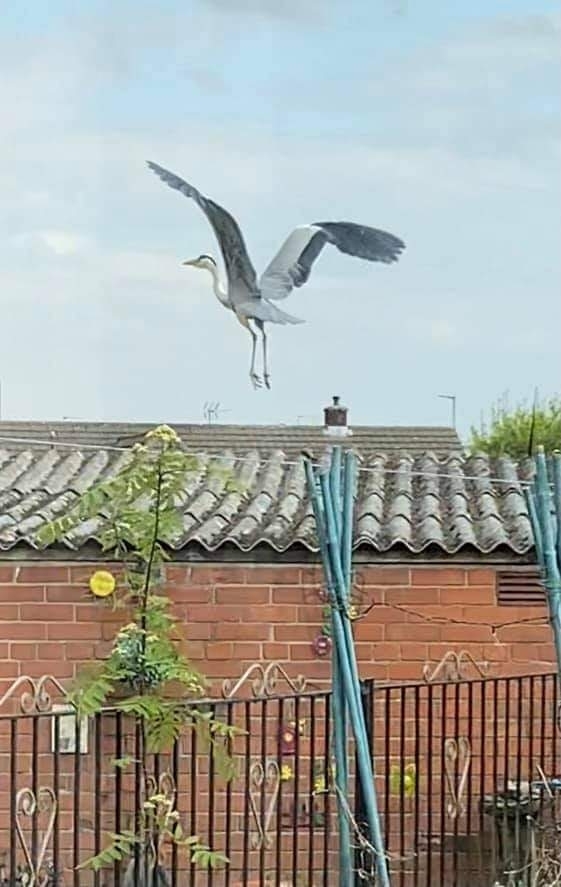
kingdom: Animalia
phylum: Chordata
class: Aves
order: Pelecaniformes
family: Ardeidae
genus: Ardea
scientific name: Ardea cinerea
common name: Grey heron
